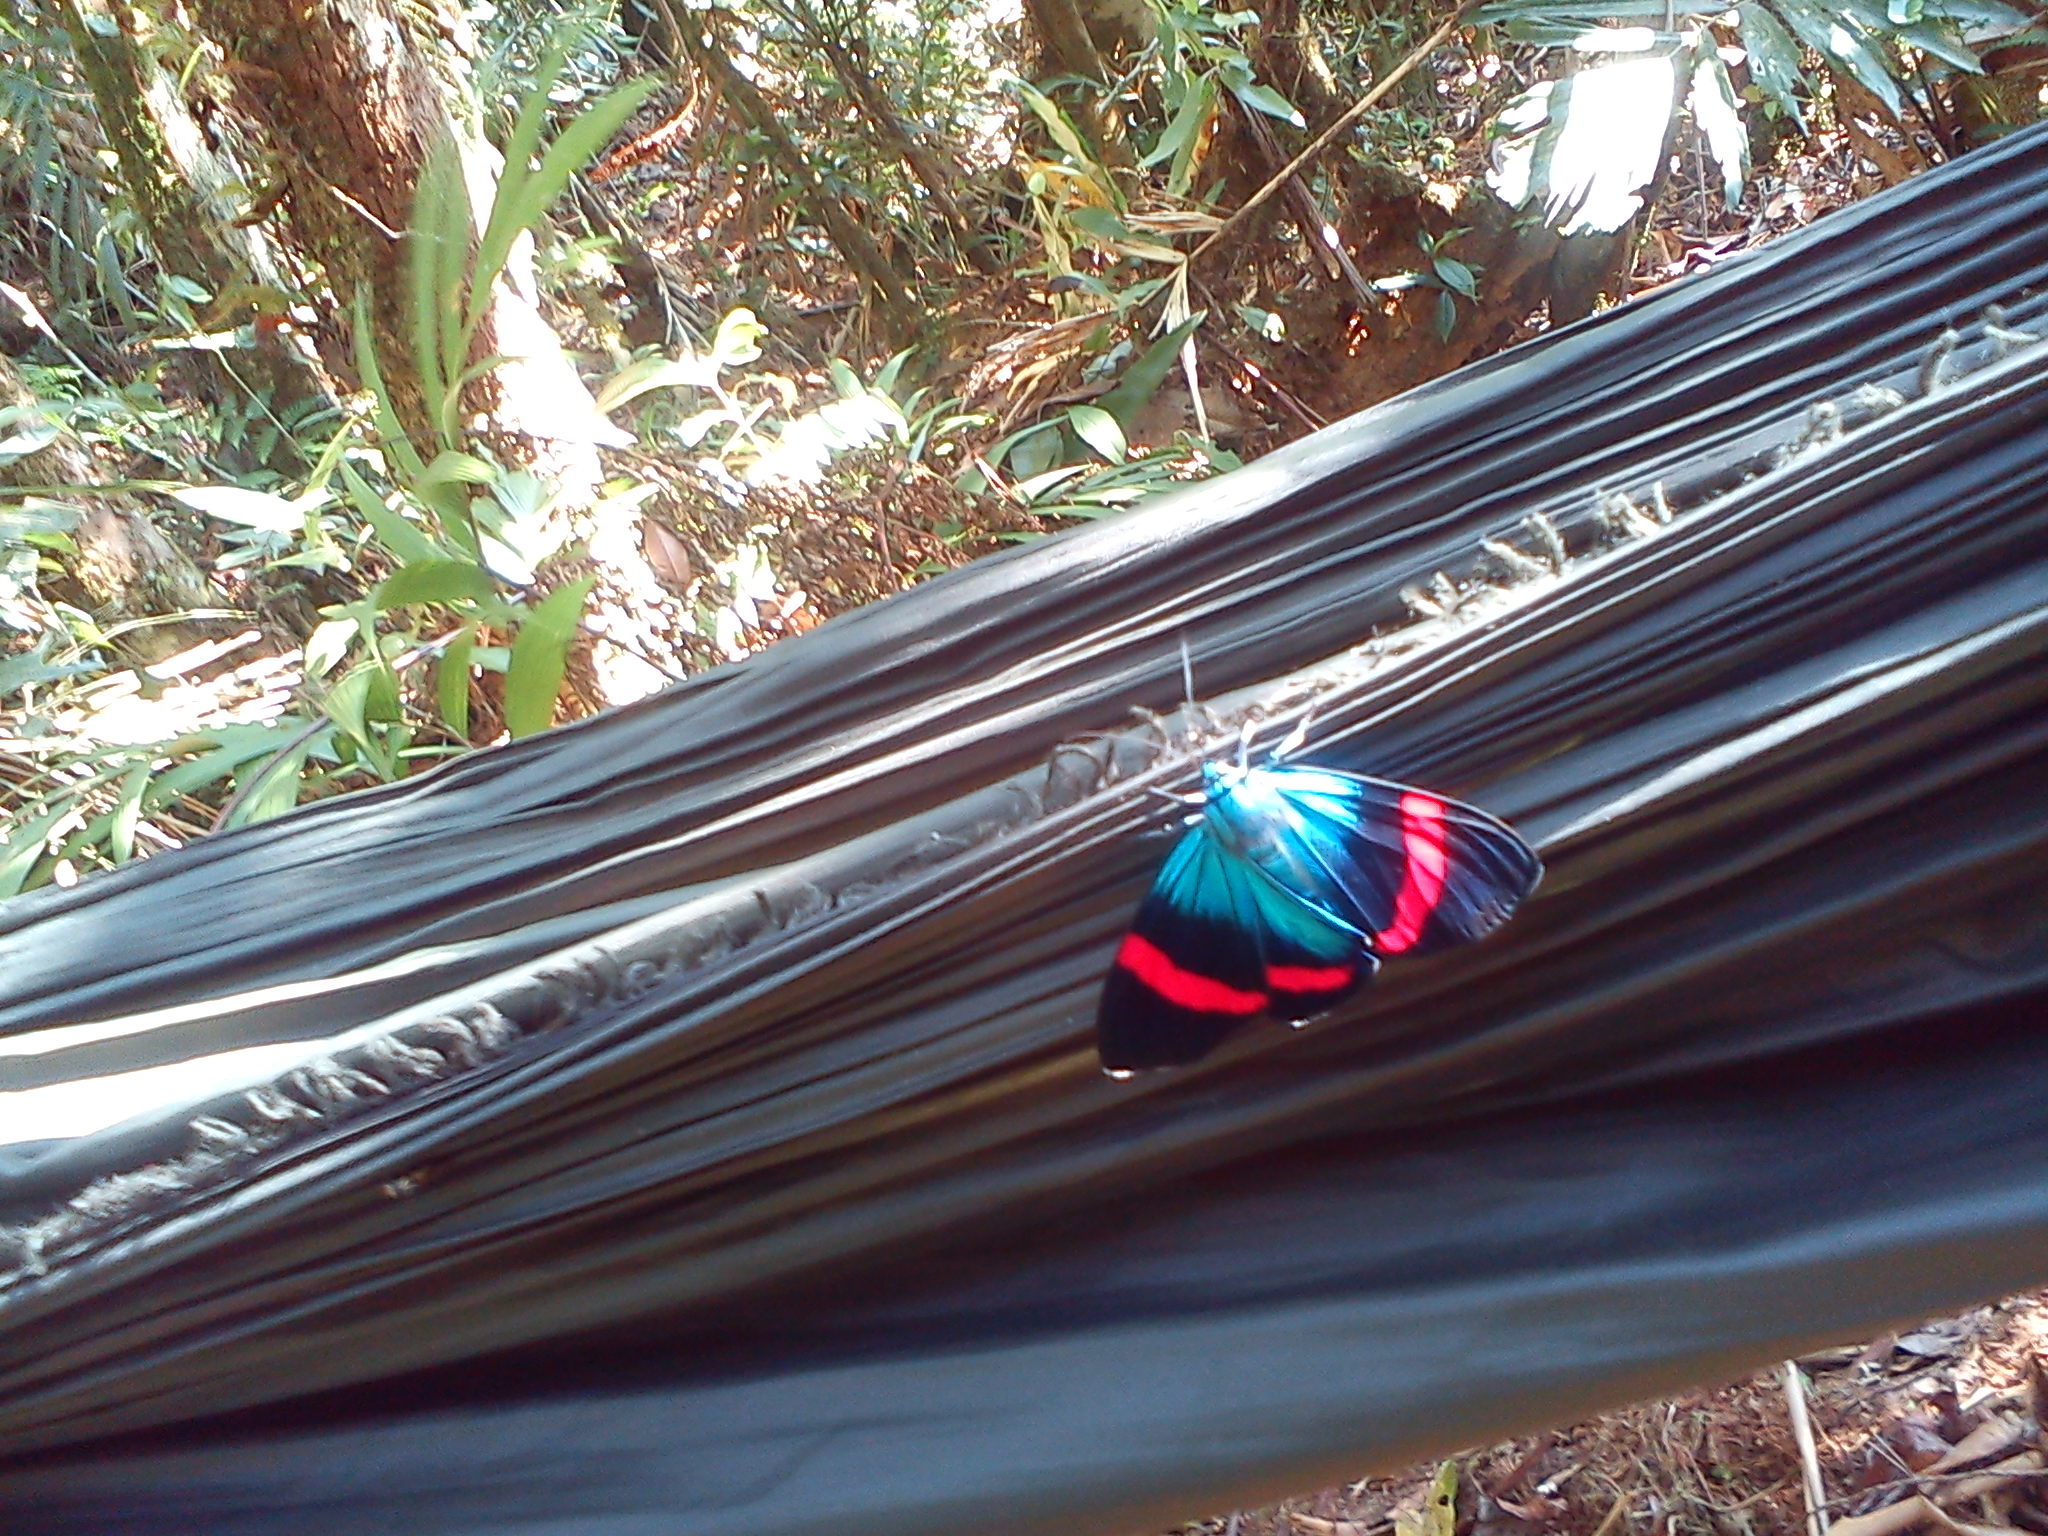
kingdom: Animalia
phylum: Arthropoda
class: Insecta
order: Lepidoptera
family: Erebidae
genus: Hypocrita
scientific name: Hypocrita temperata
